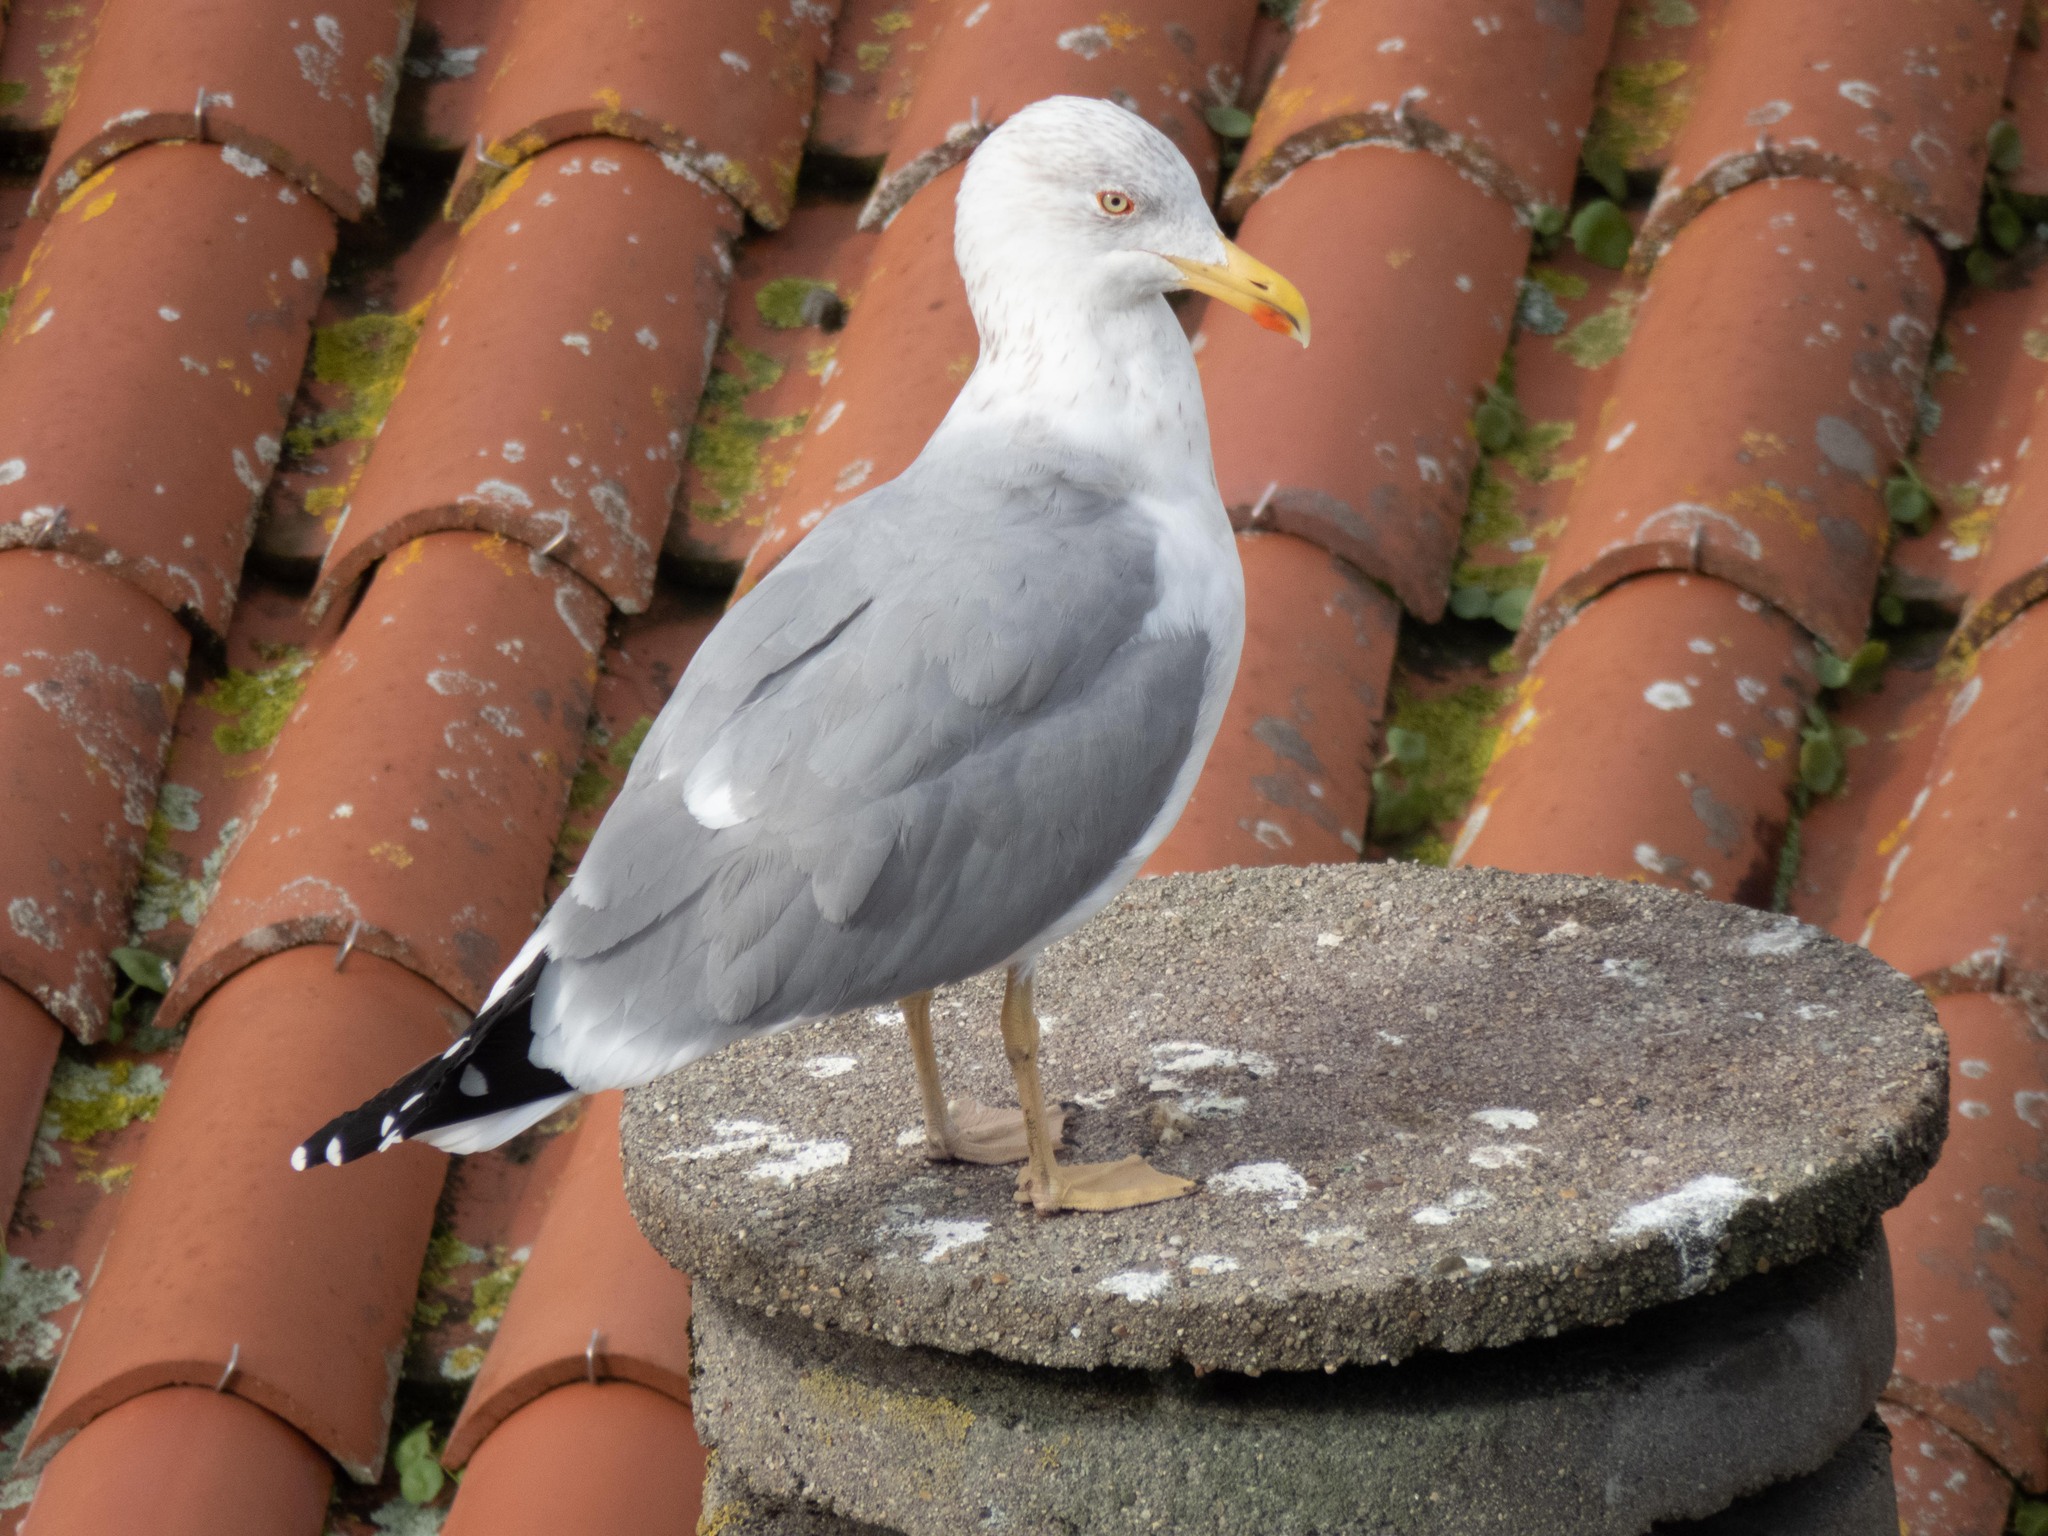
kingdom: Animalia
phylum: Chordata
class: Aves
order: Charadriiformes
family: Laridae
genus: Larus
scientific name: Larus michahellis
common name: Yellow-legged gull
